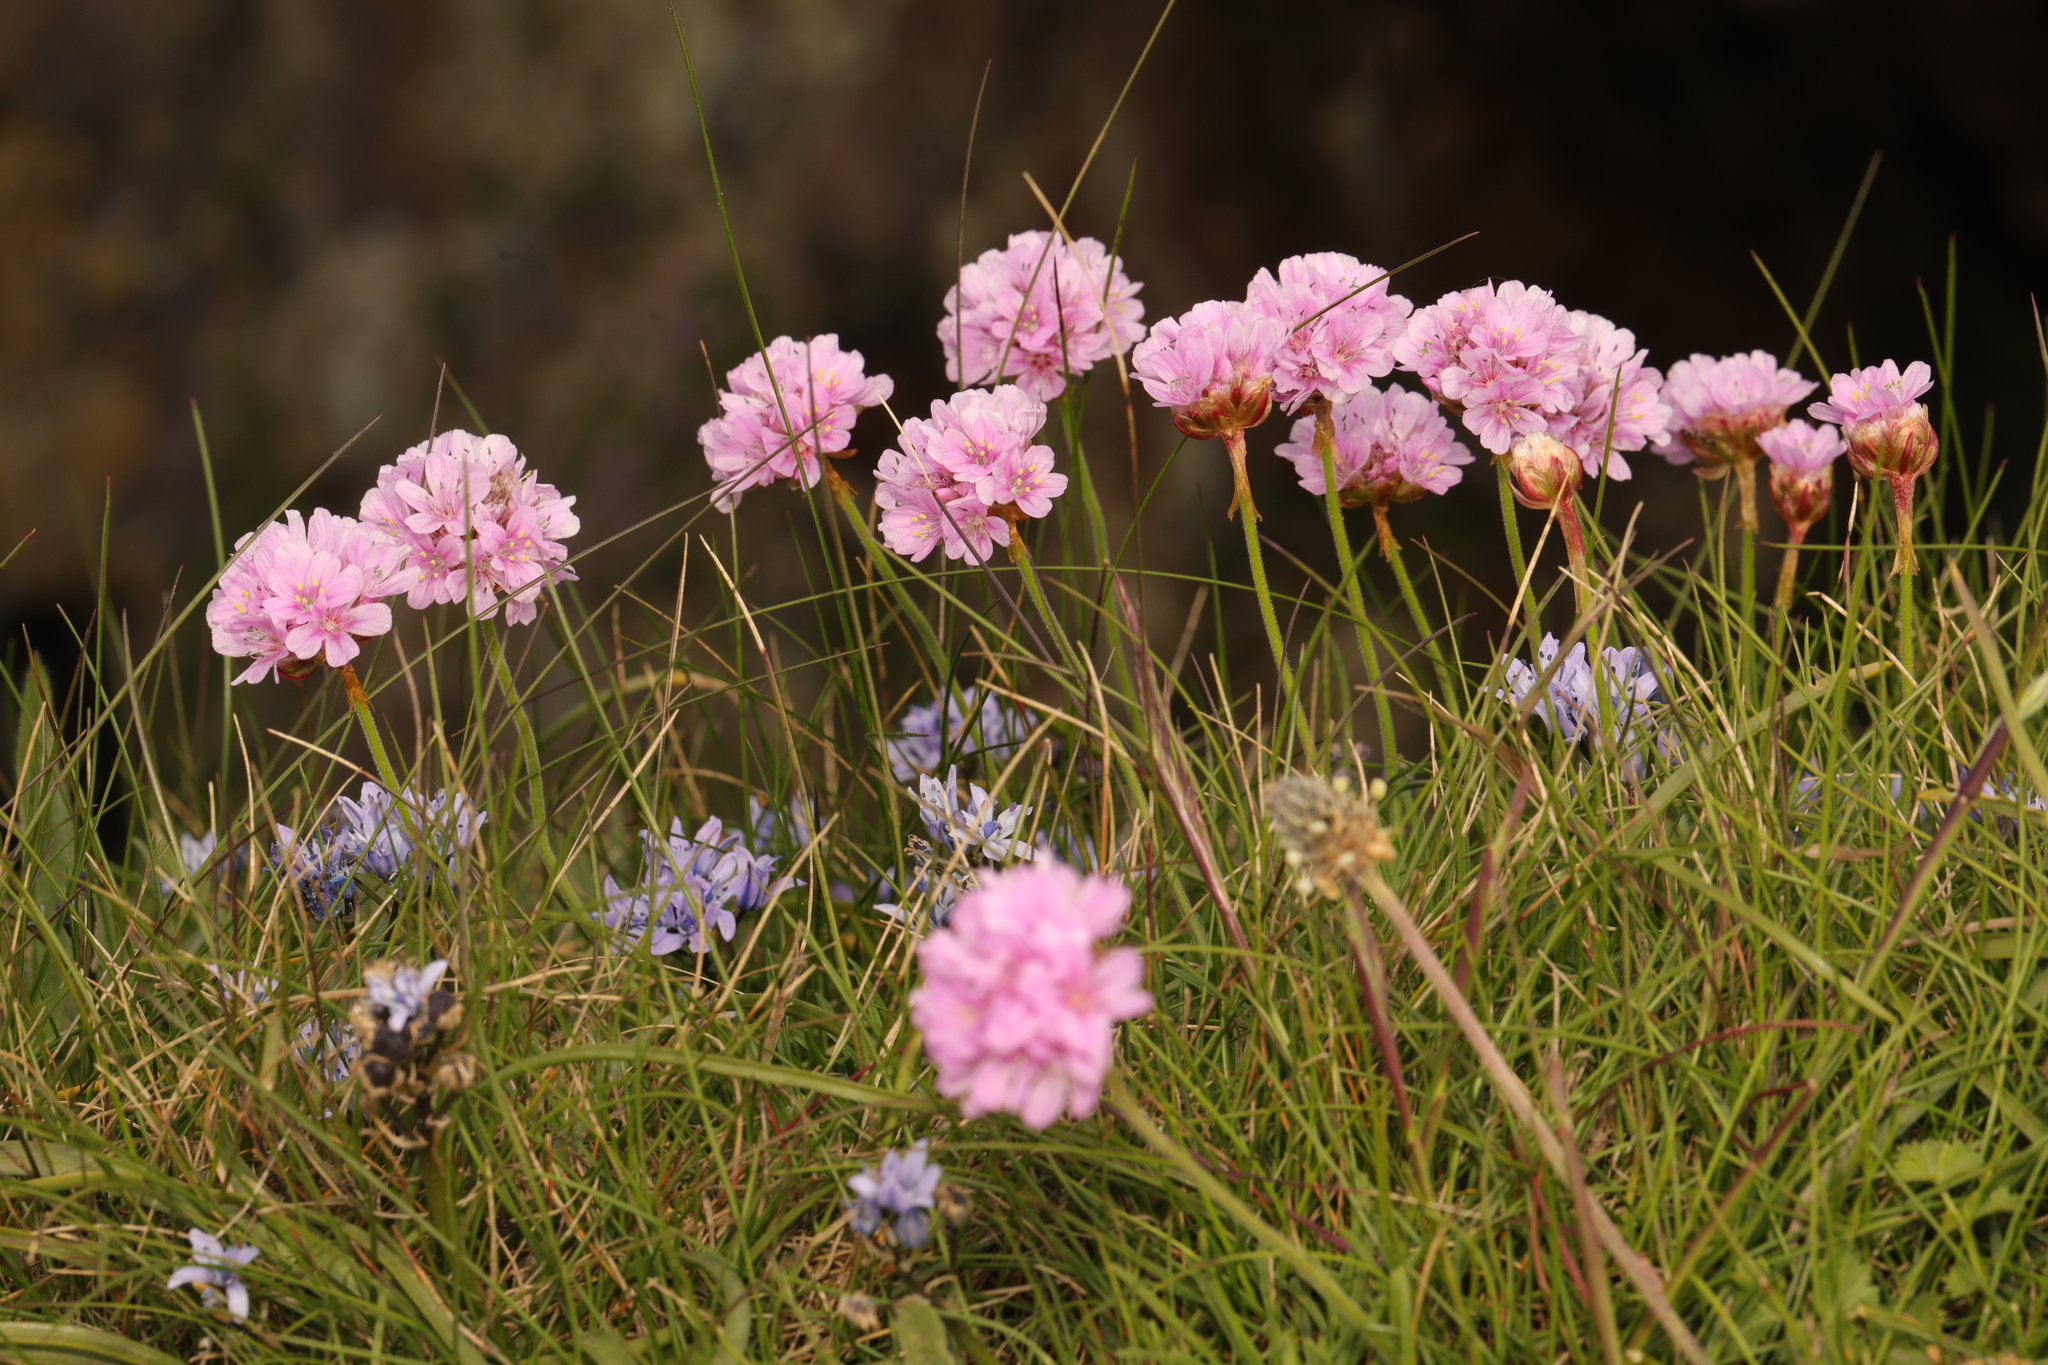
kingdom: Plantae
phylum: Tracheophyta
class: Magnoliopsida
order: Caryophyllales
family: Plumbaginaceae
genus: Armeria
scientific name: Armeria maritima
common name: Thrift
